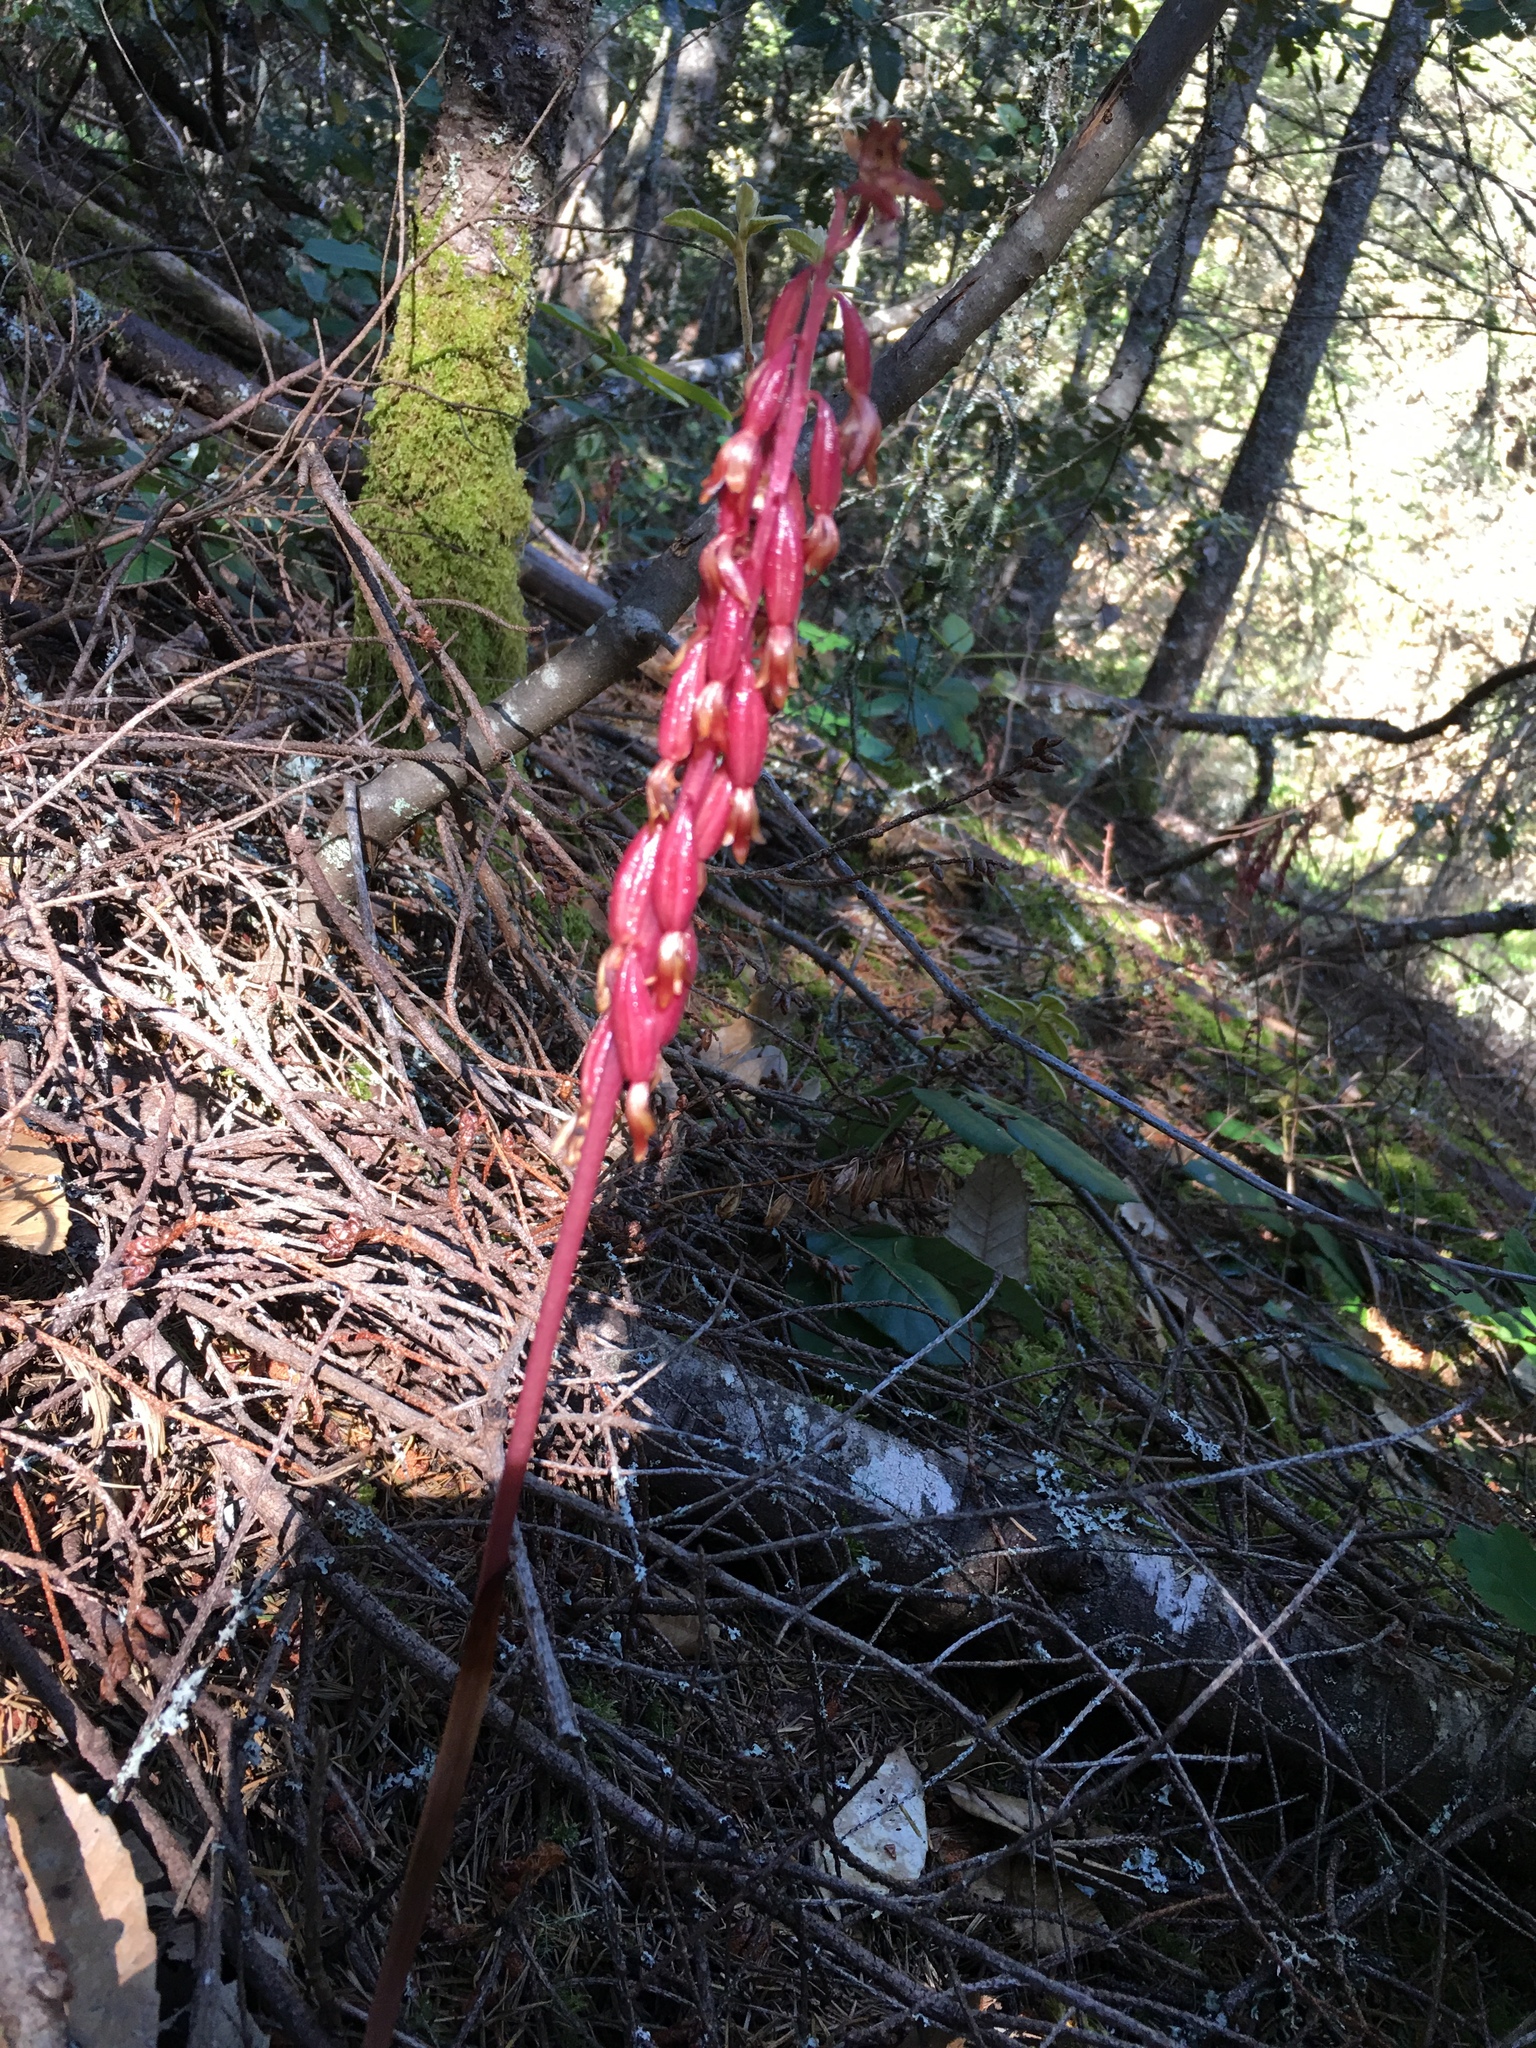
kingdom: Plantae
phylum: Tracheophyta
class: Liliopsida
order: Asparagales
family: Orchidaceae
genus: Corallorhiza
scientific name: Corallorhiza maculata
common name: Spotted coralroot
